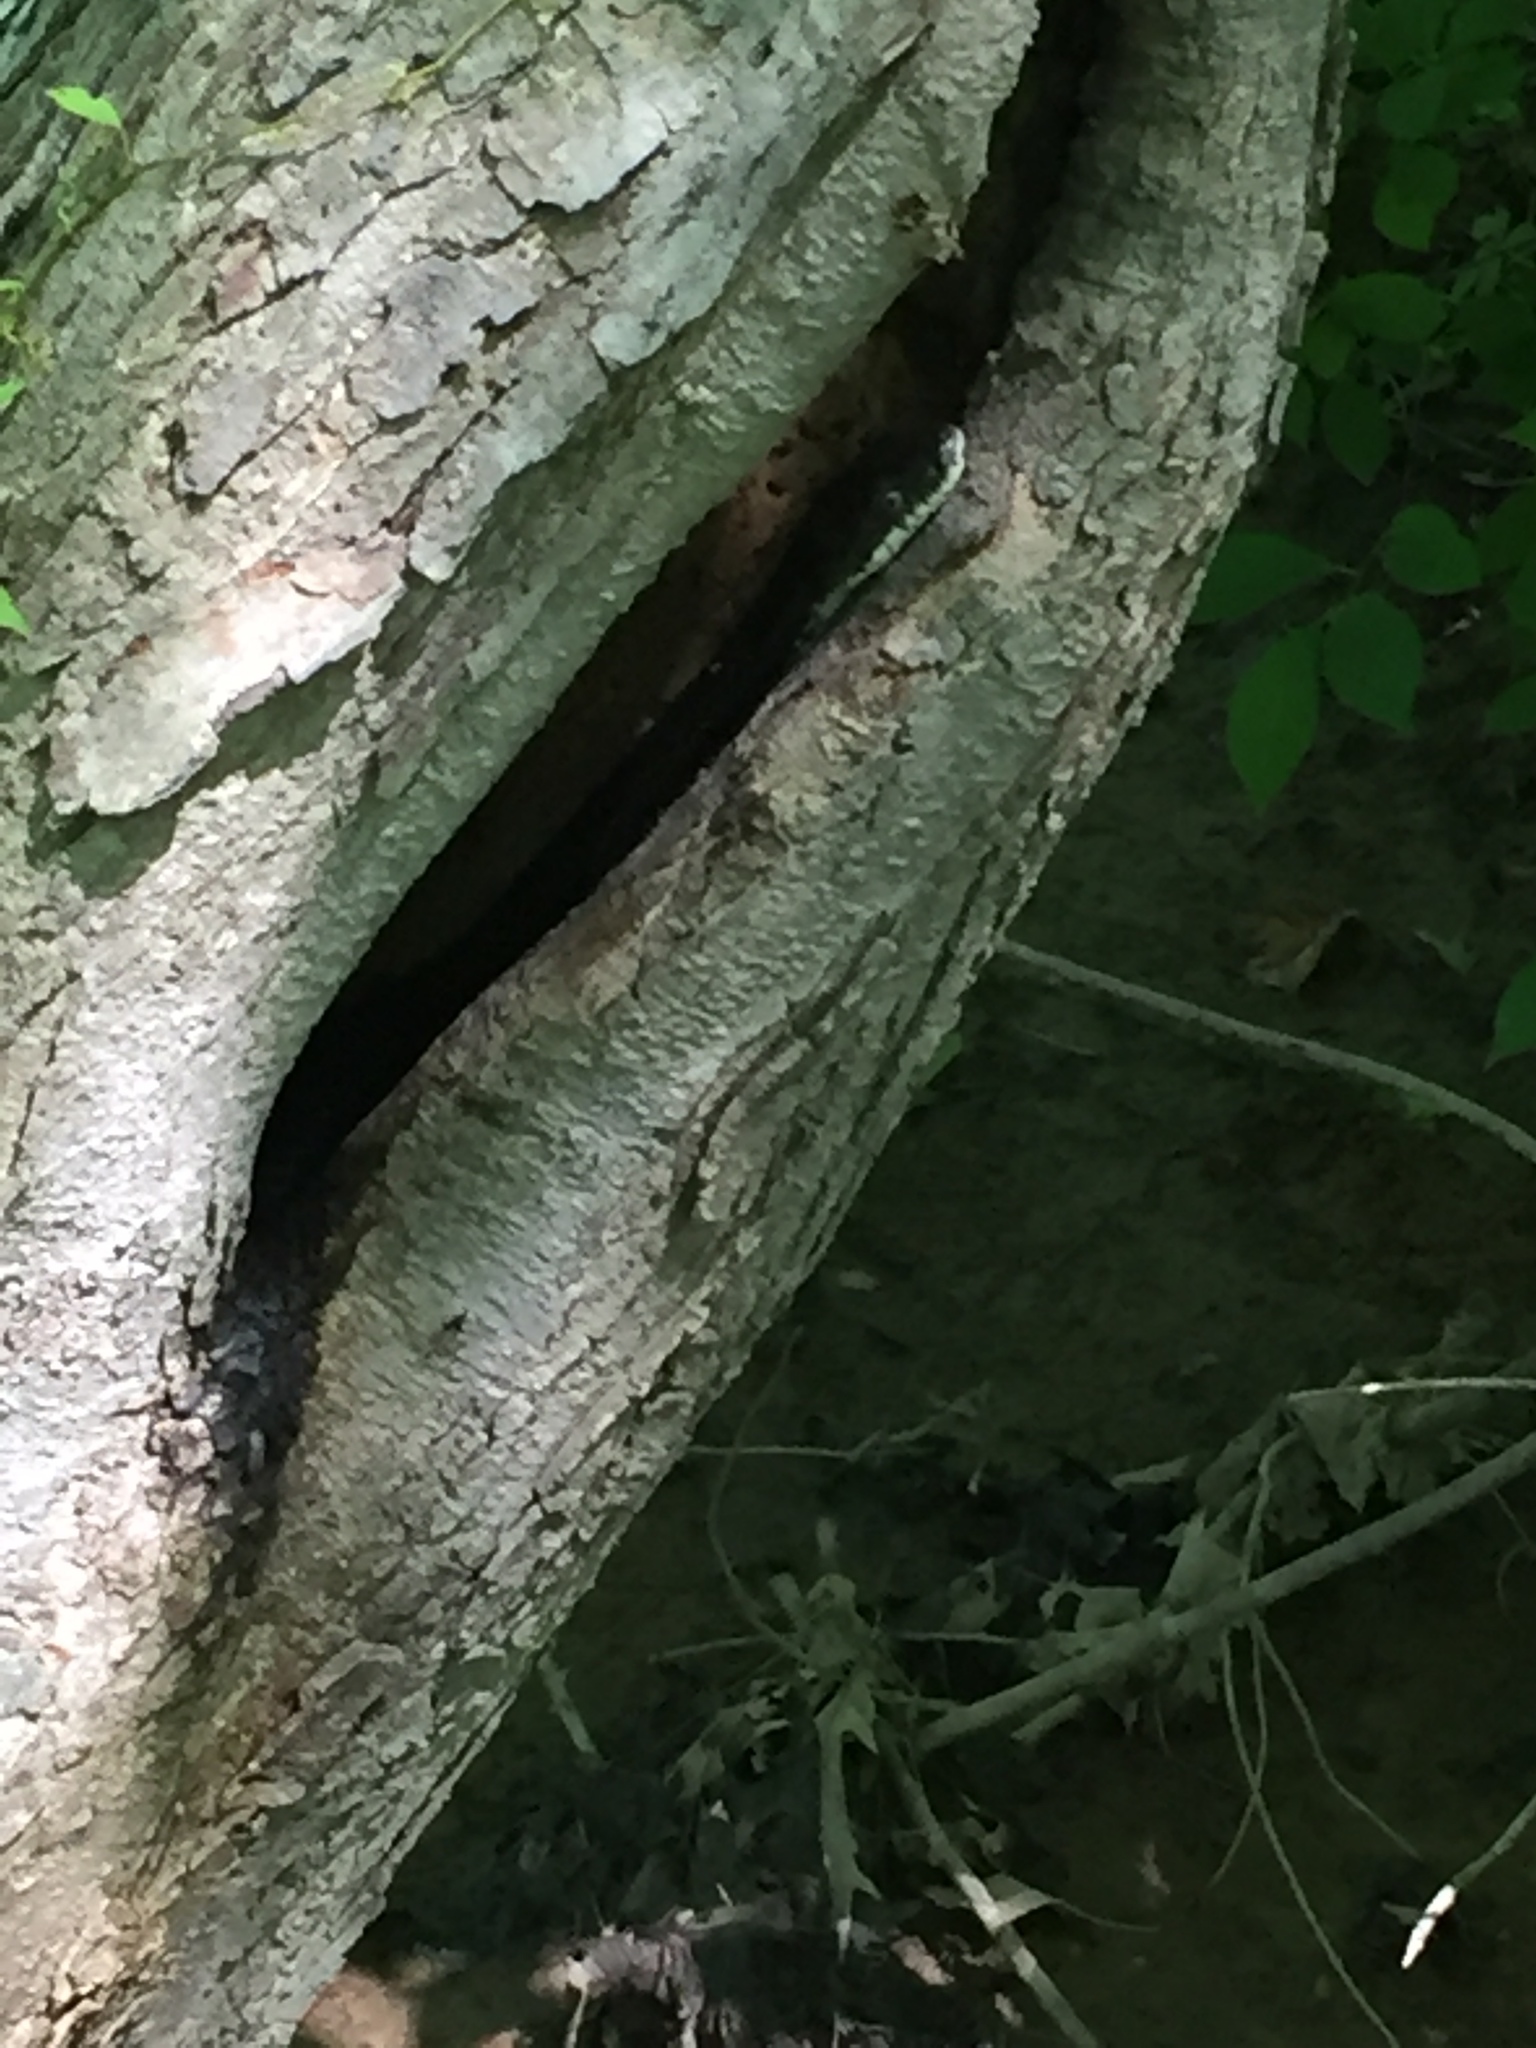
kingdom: Animalia
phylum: Chordata
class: Squamata
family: Colubridae
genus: Pantherophis
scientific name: Pantherophis alleghaniensis
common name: Eastern rat snake
